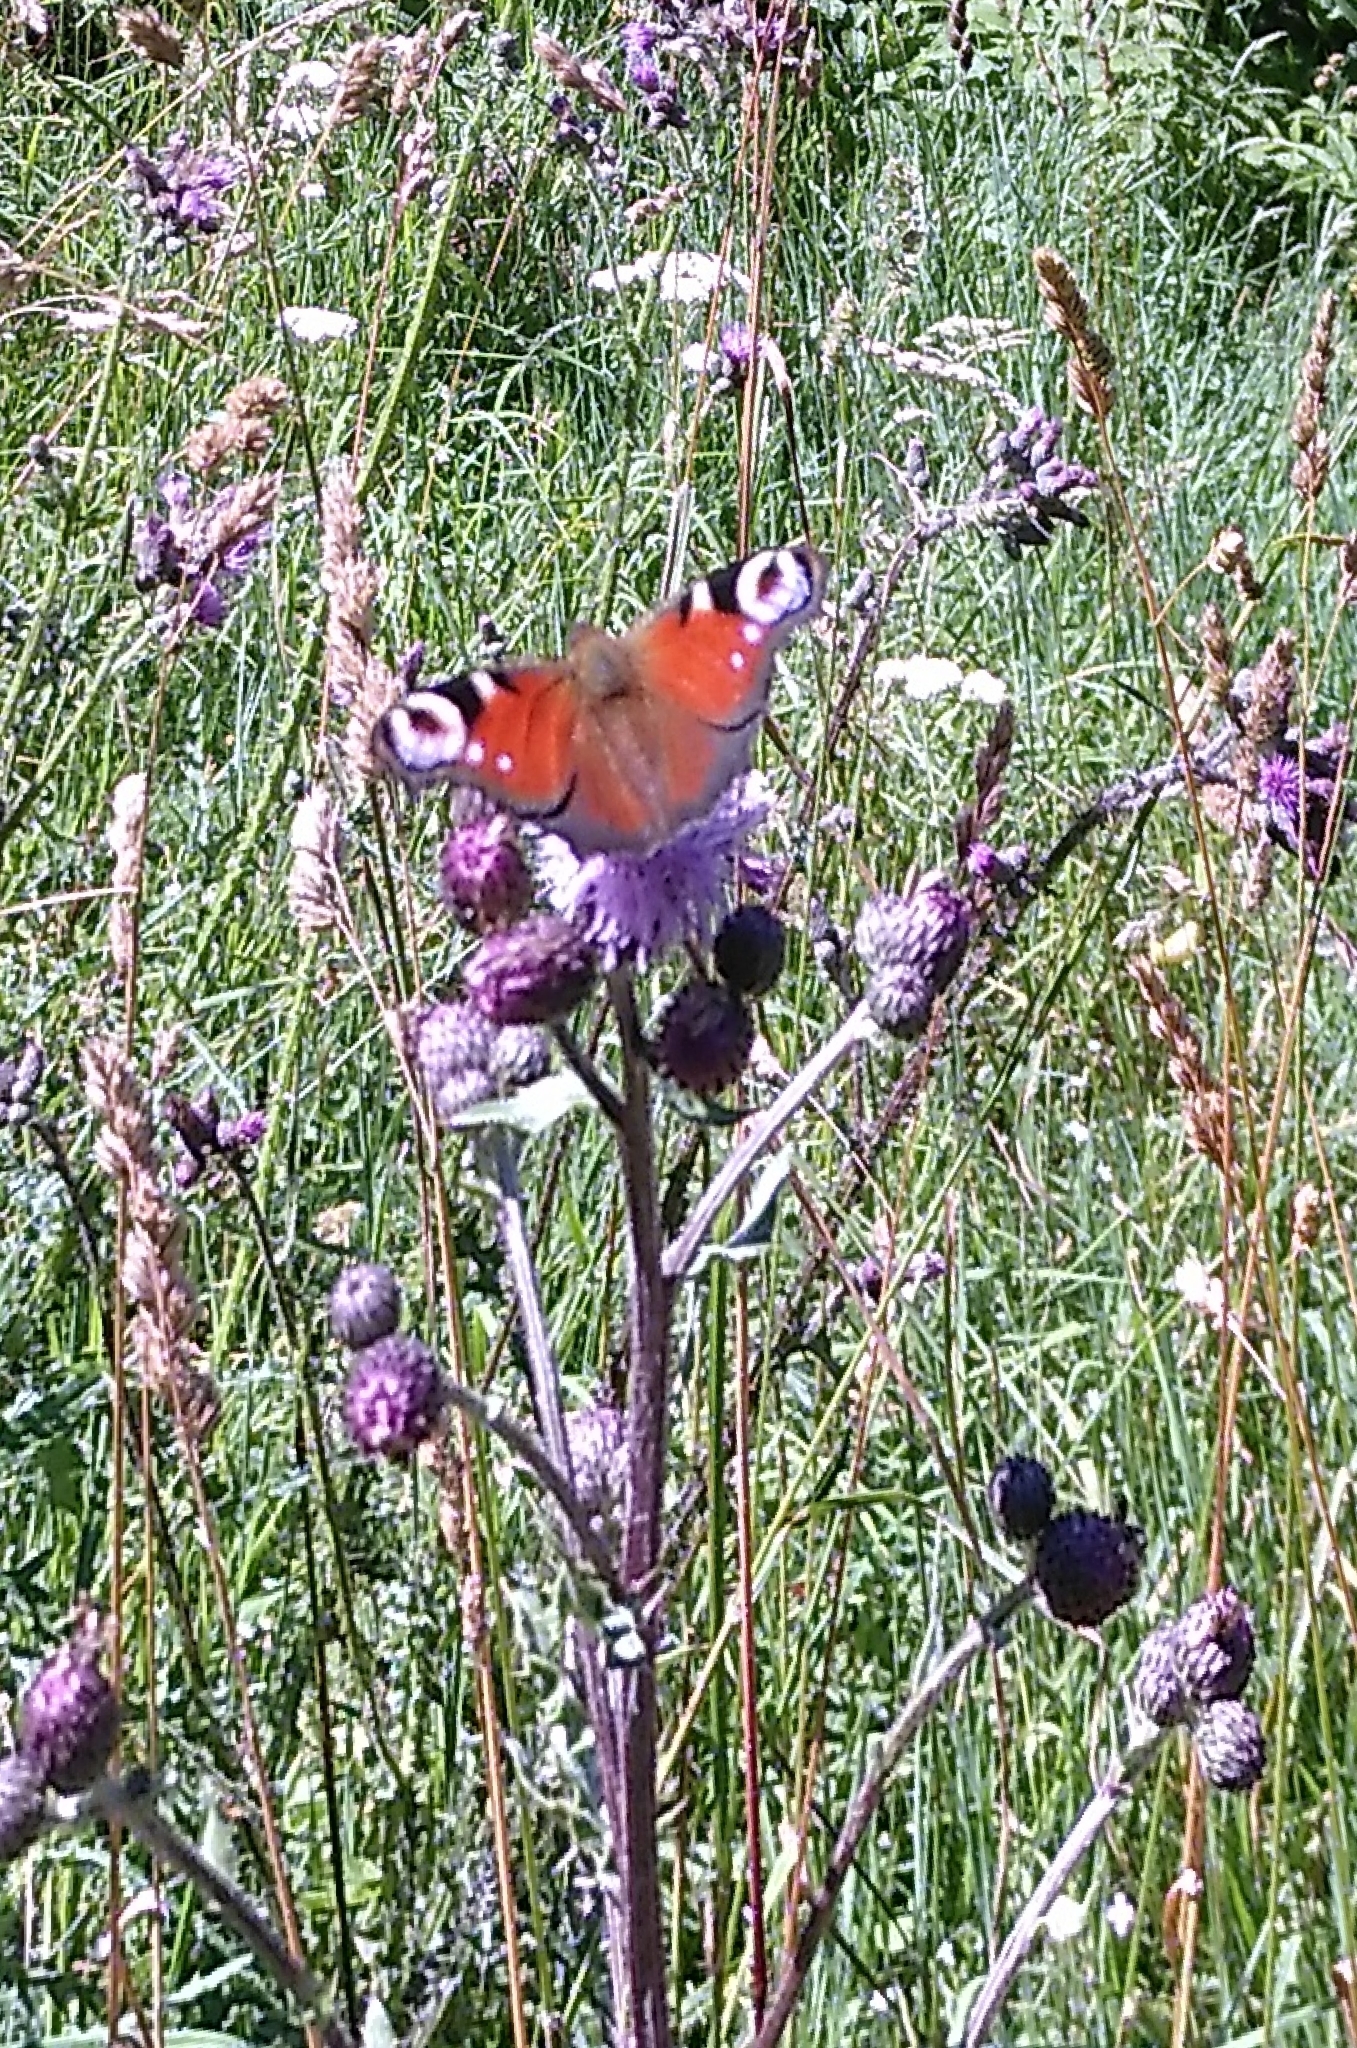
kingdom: Animalia
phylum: Arthropoda
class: Insecta
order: Lepidoptera
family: Nymphalidae
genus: Aglais
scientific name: Aglais io
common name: Peacock
